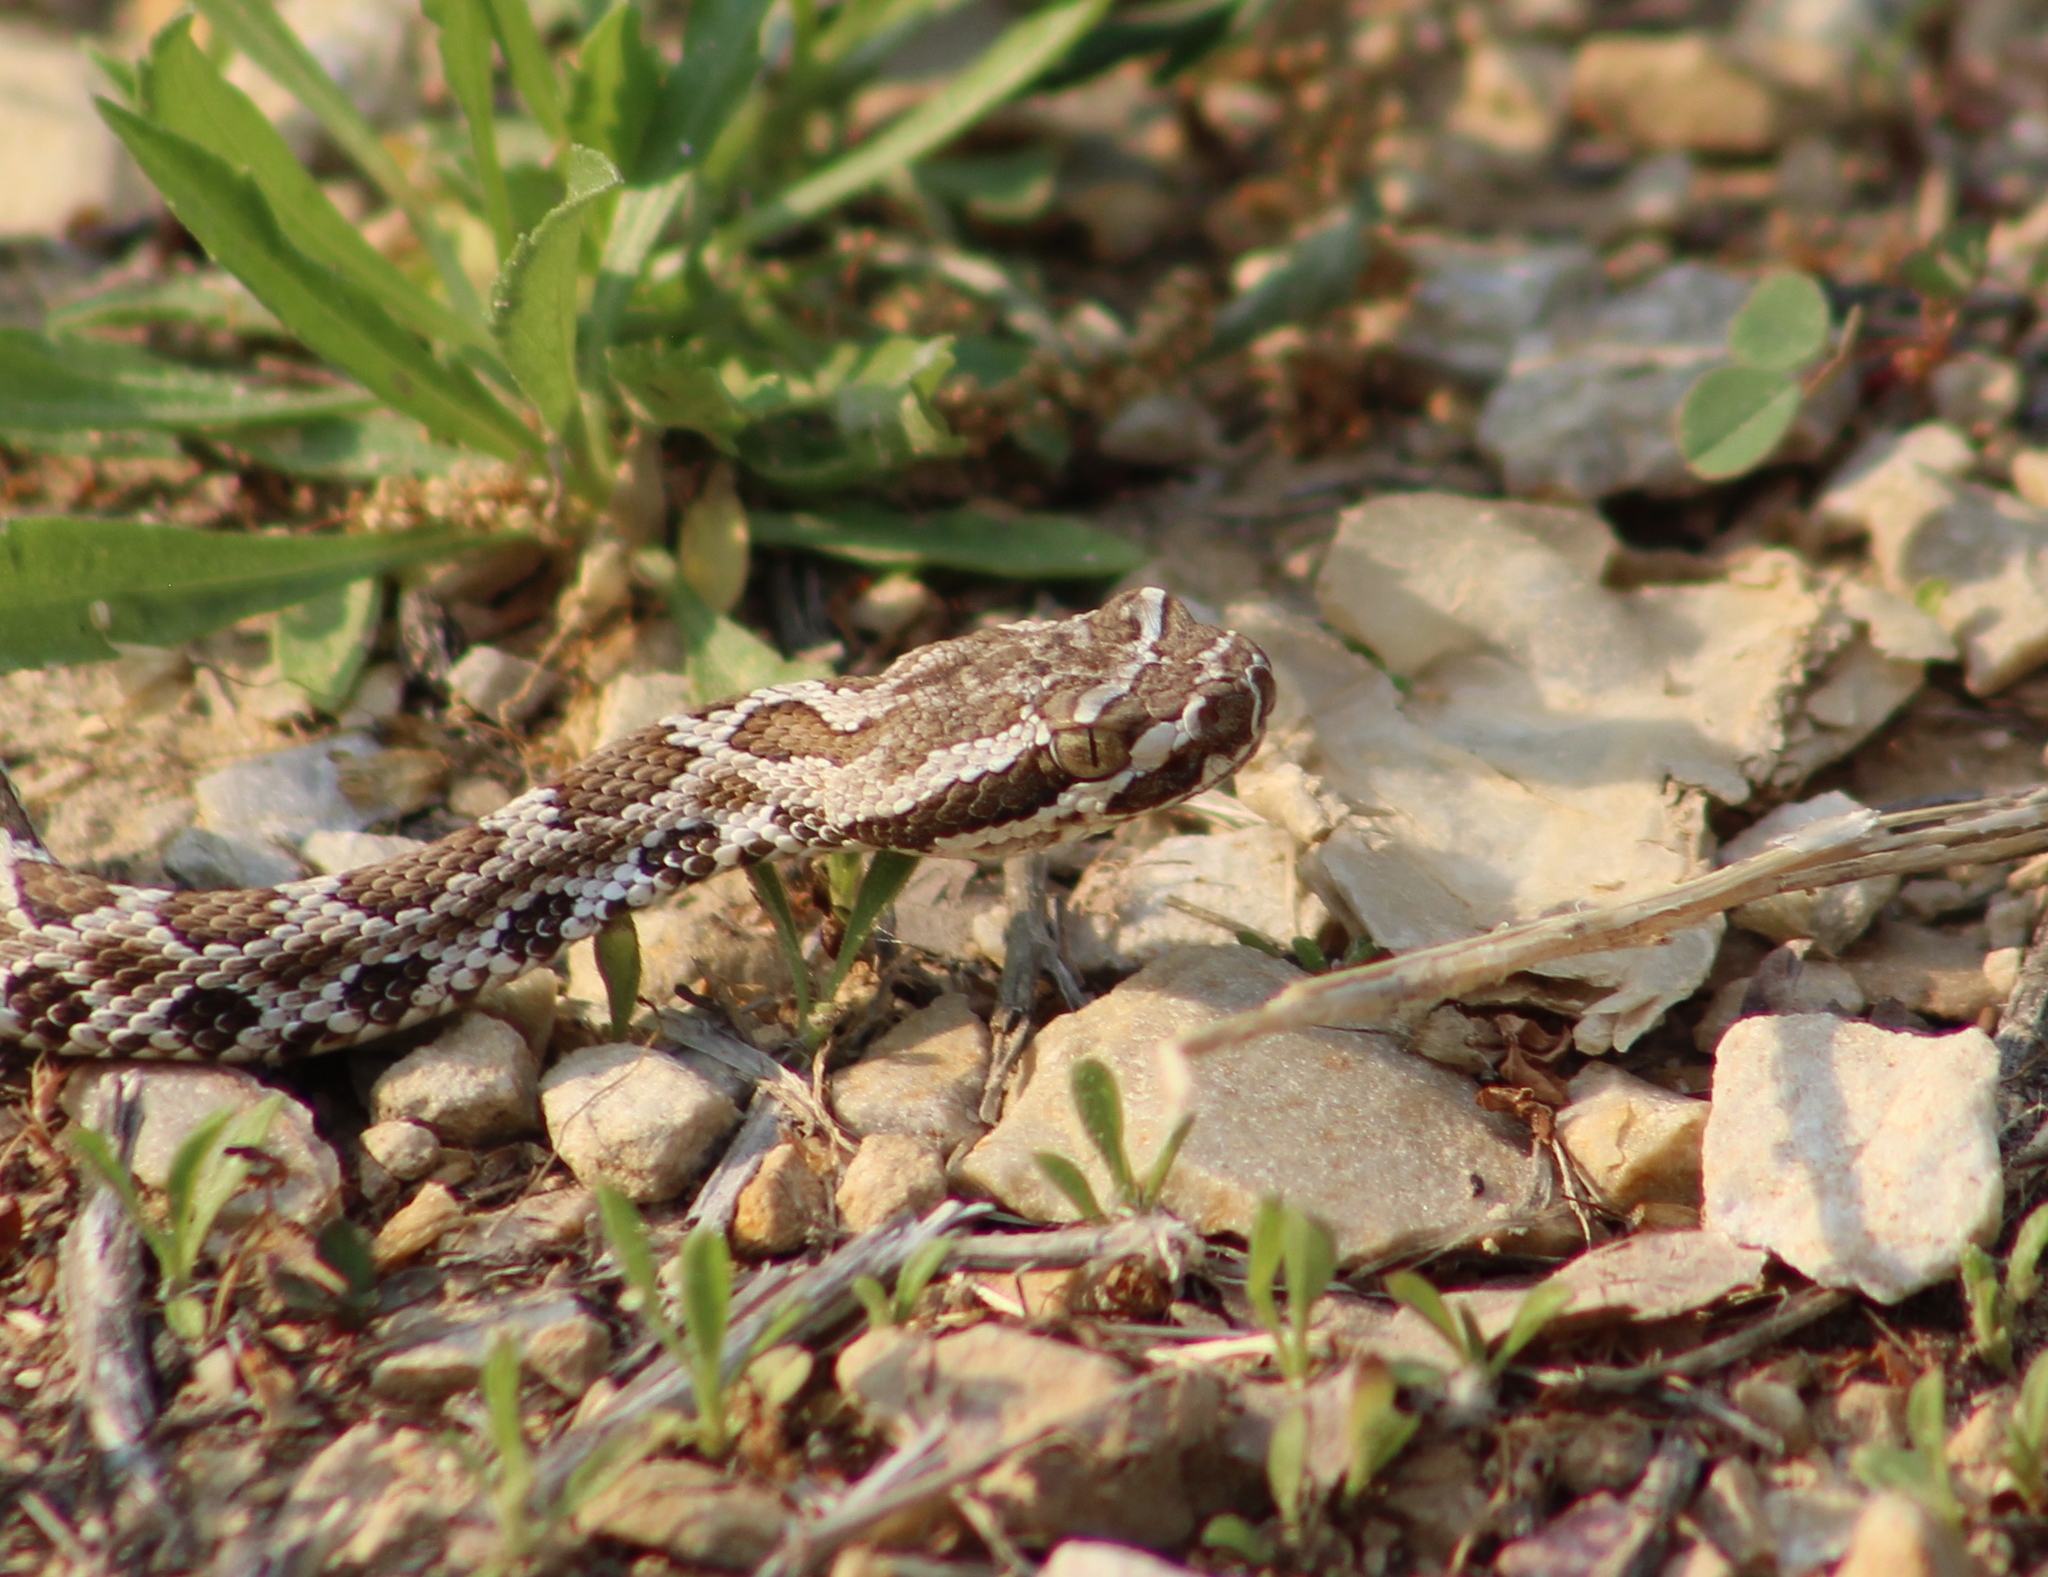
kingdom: Animalia
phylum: Chordata
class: Squamata
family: Viperidae
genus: Crotalus
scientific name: Crotalus oreganus
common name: Abyssus
